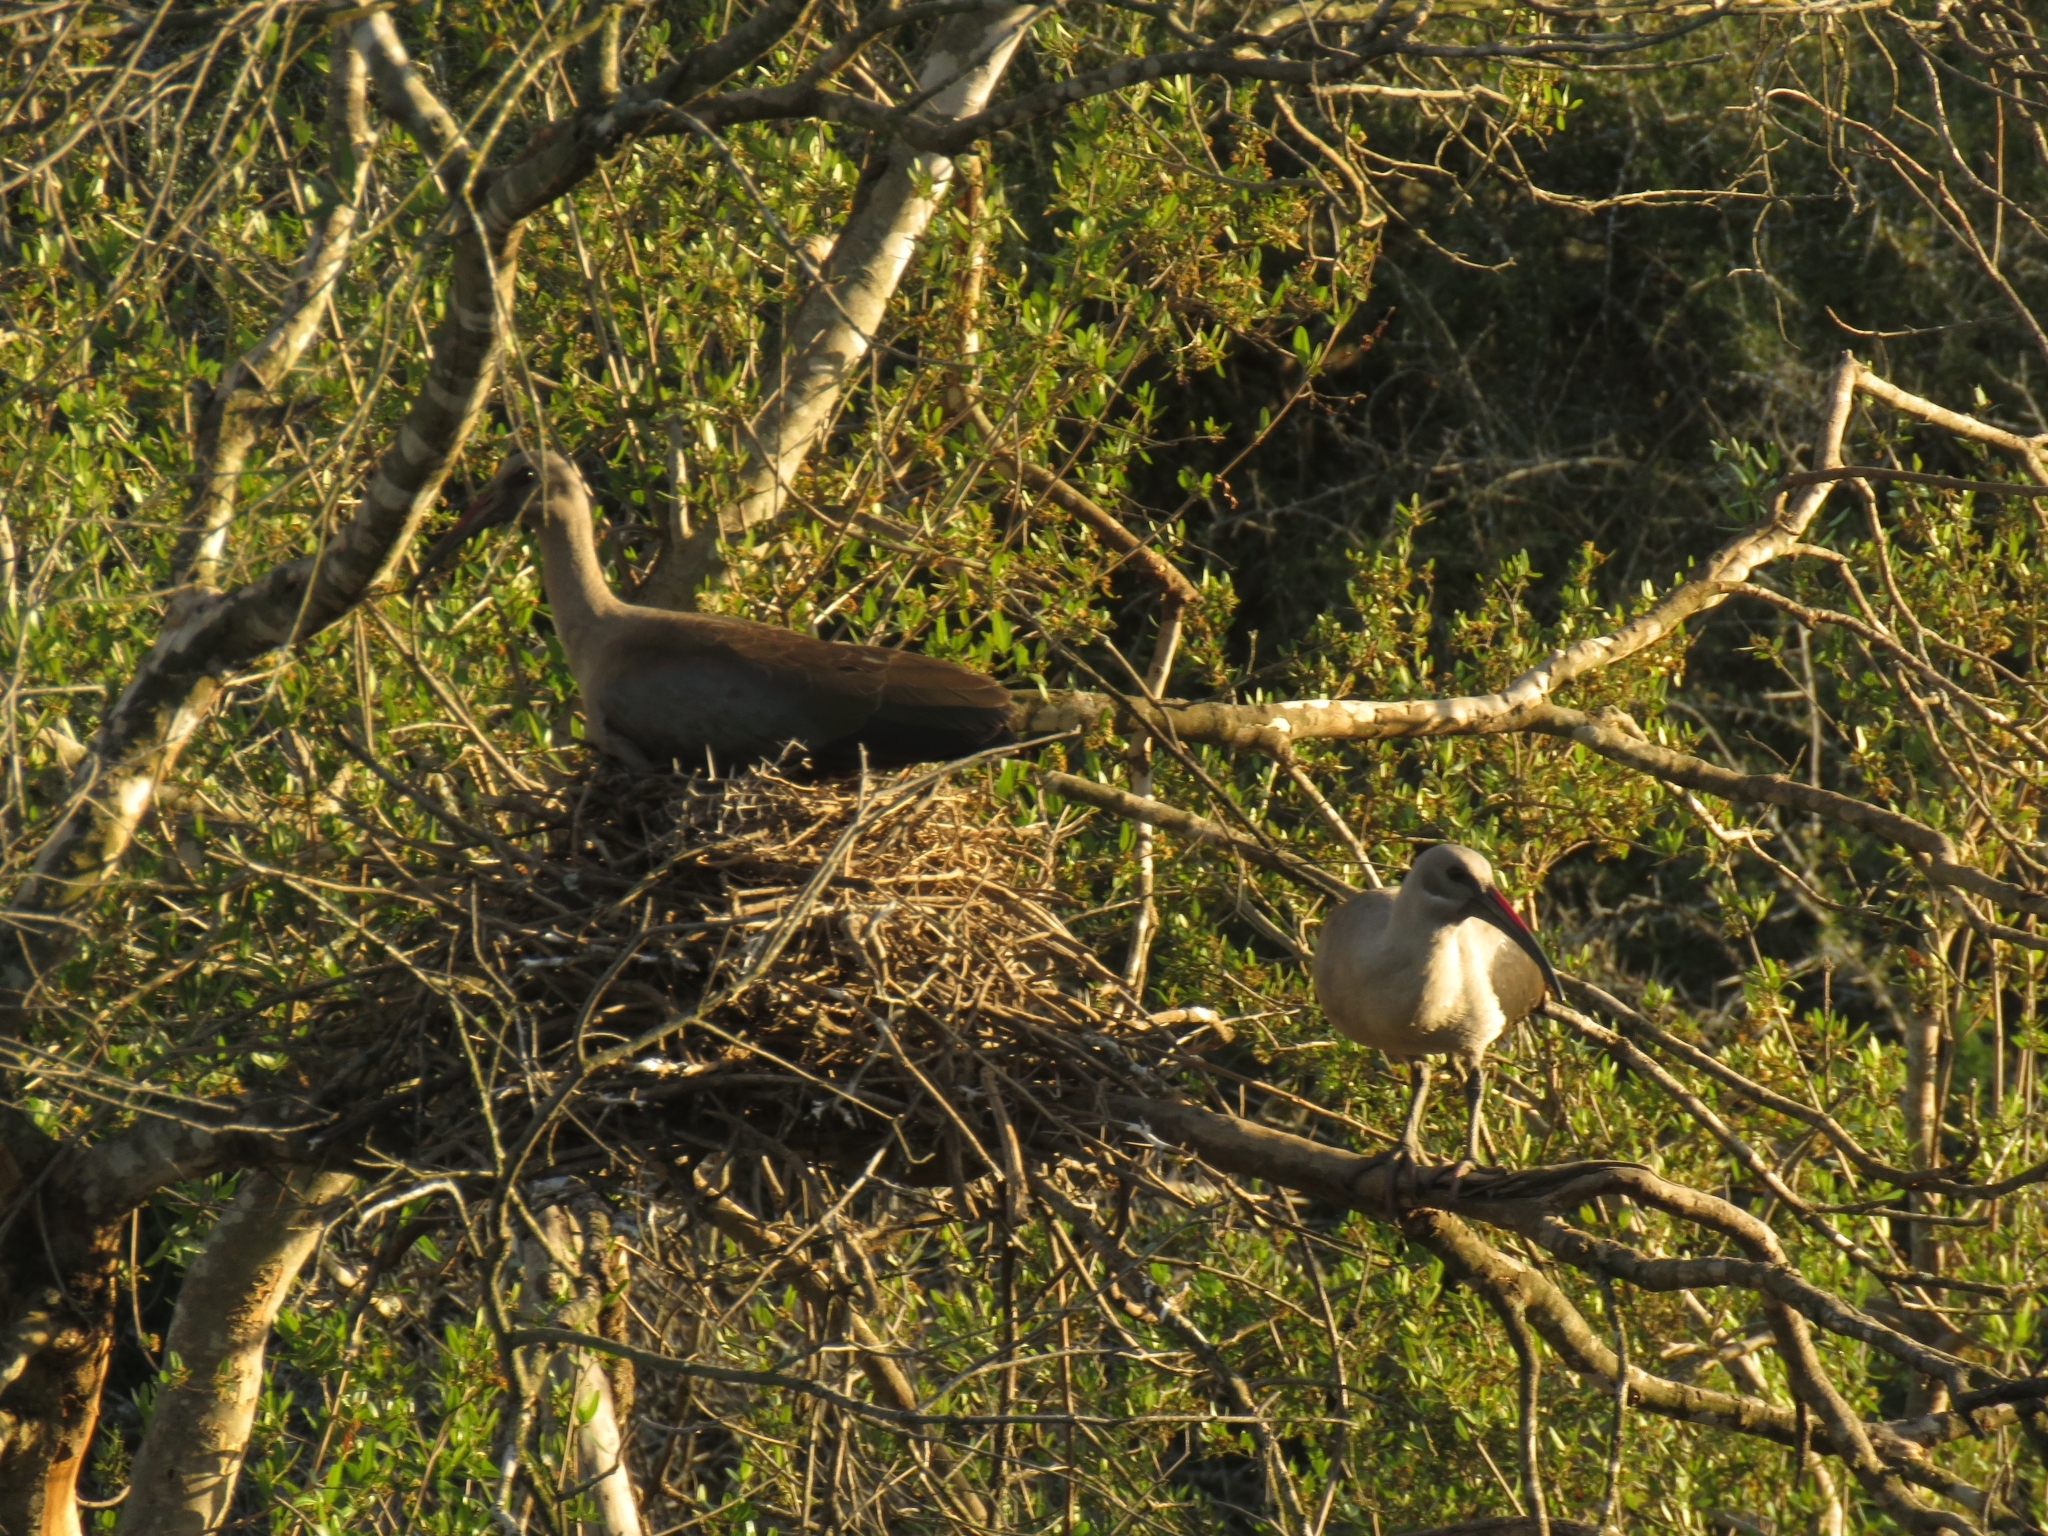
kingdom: Animalia
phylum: Chordata
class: Aves
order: Pelecaniformes
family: Threskiornithidae
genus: Bostrychia
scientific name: Bostrychia hagedash
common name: Hadada ibis
